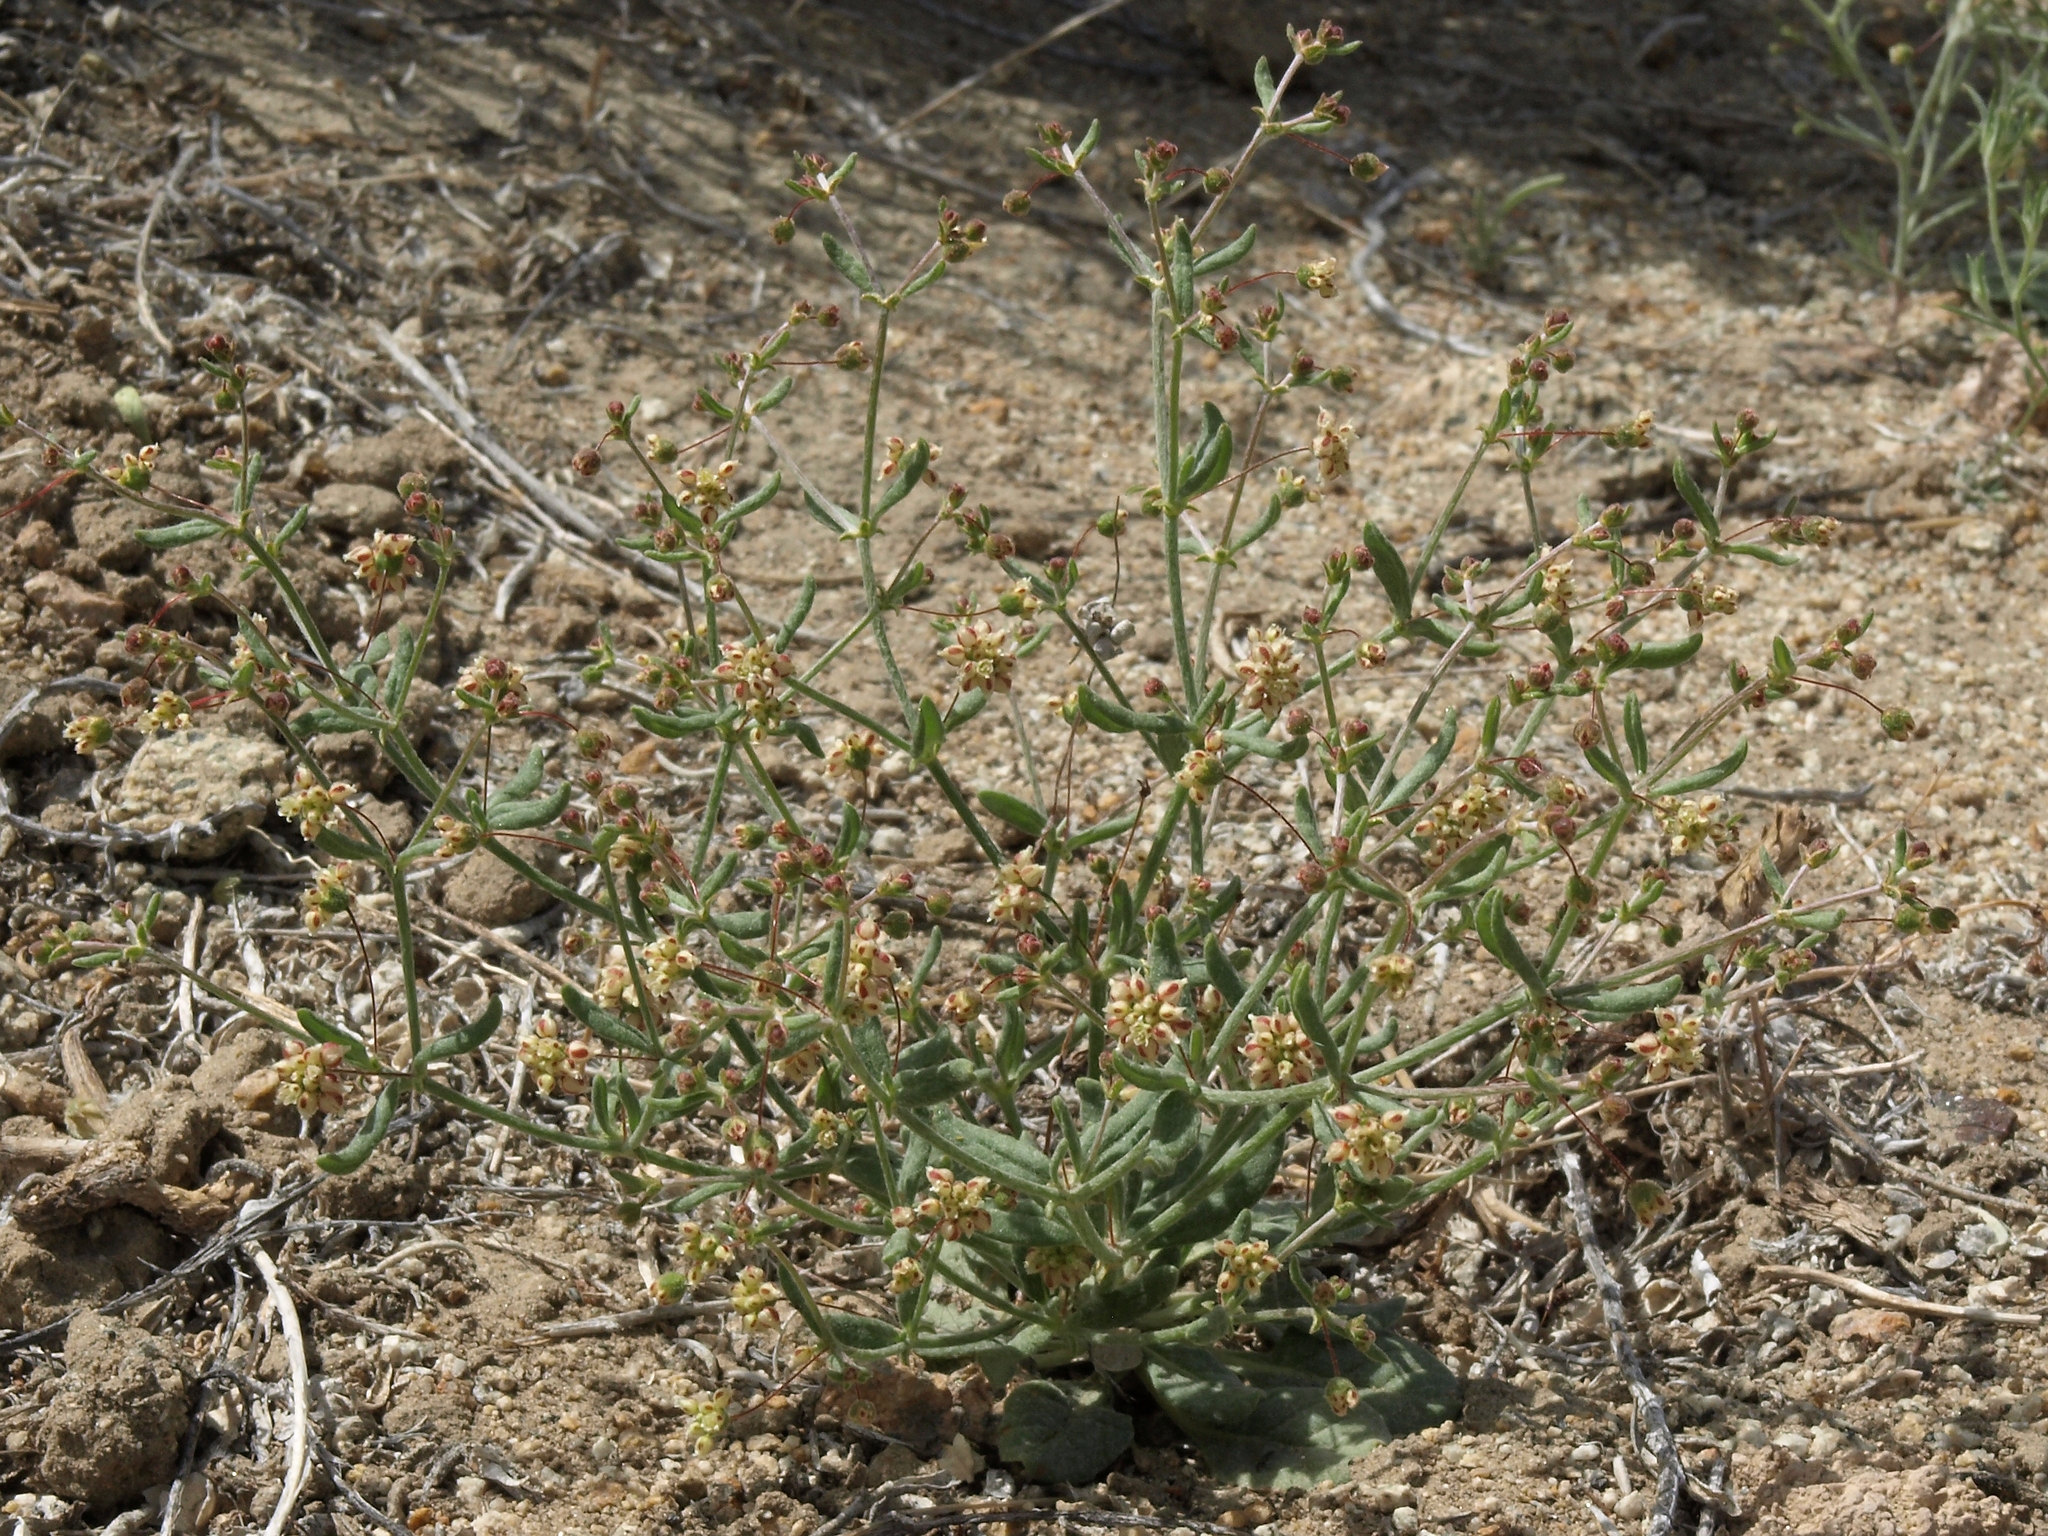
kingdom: Plantae
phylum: Tracheophyta
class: Magnoliopsida
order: Caryophyllales
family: Polygonaceae
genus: Eriogonum
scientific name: Eriogonum maculatum
